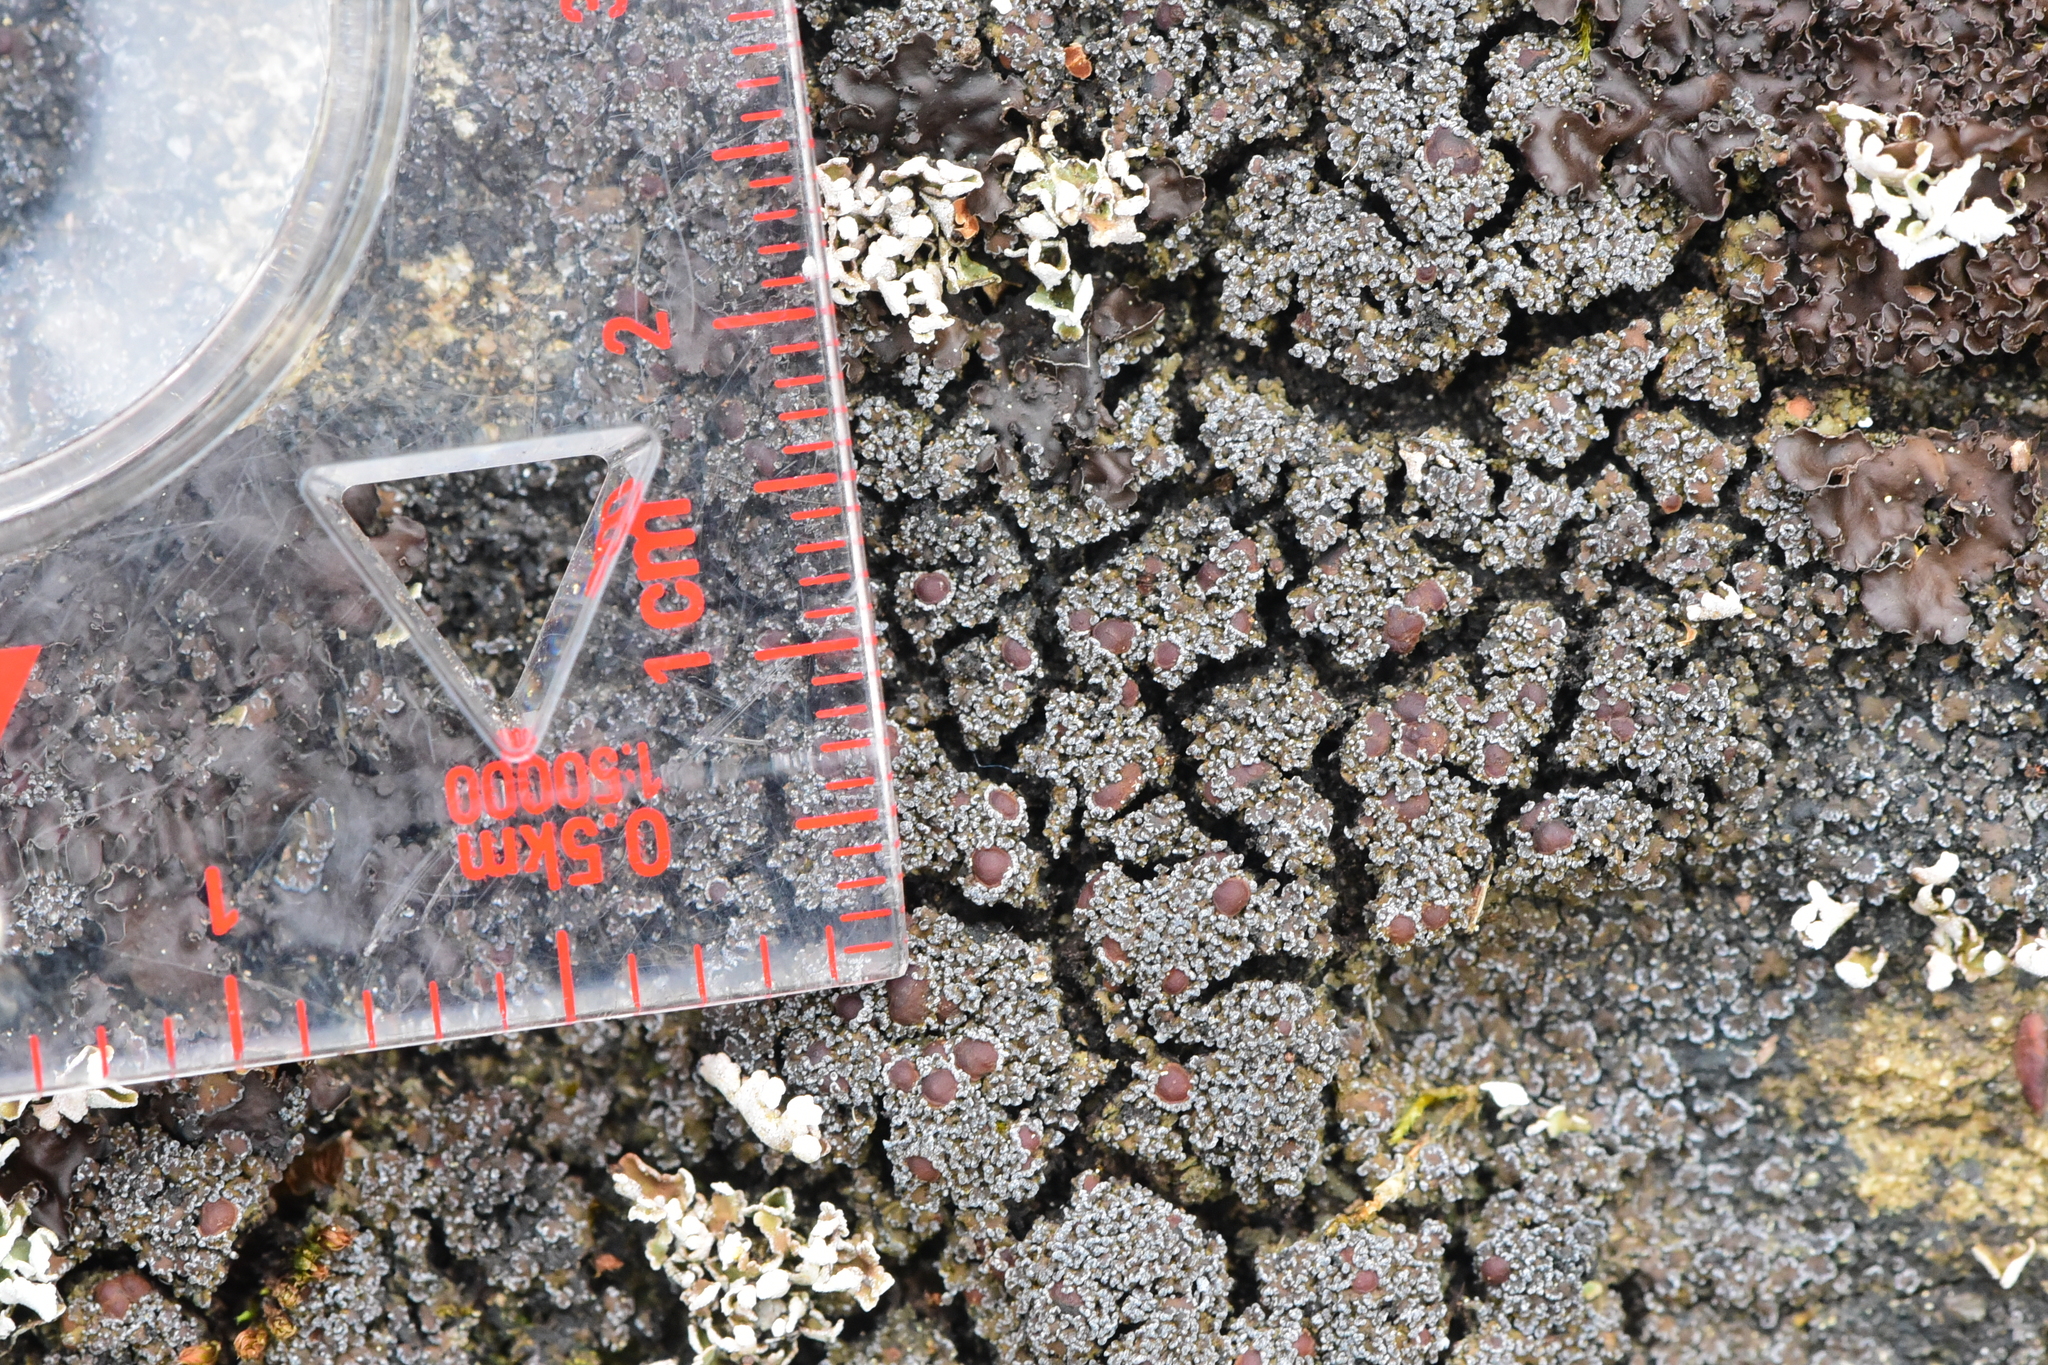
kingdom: Fungi
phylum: Ascomycota
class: Lecanoromycetes
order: Peltigerales
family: Pannariaceae
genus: Fuscopannaria
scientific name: Fuscopannaria maritima
